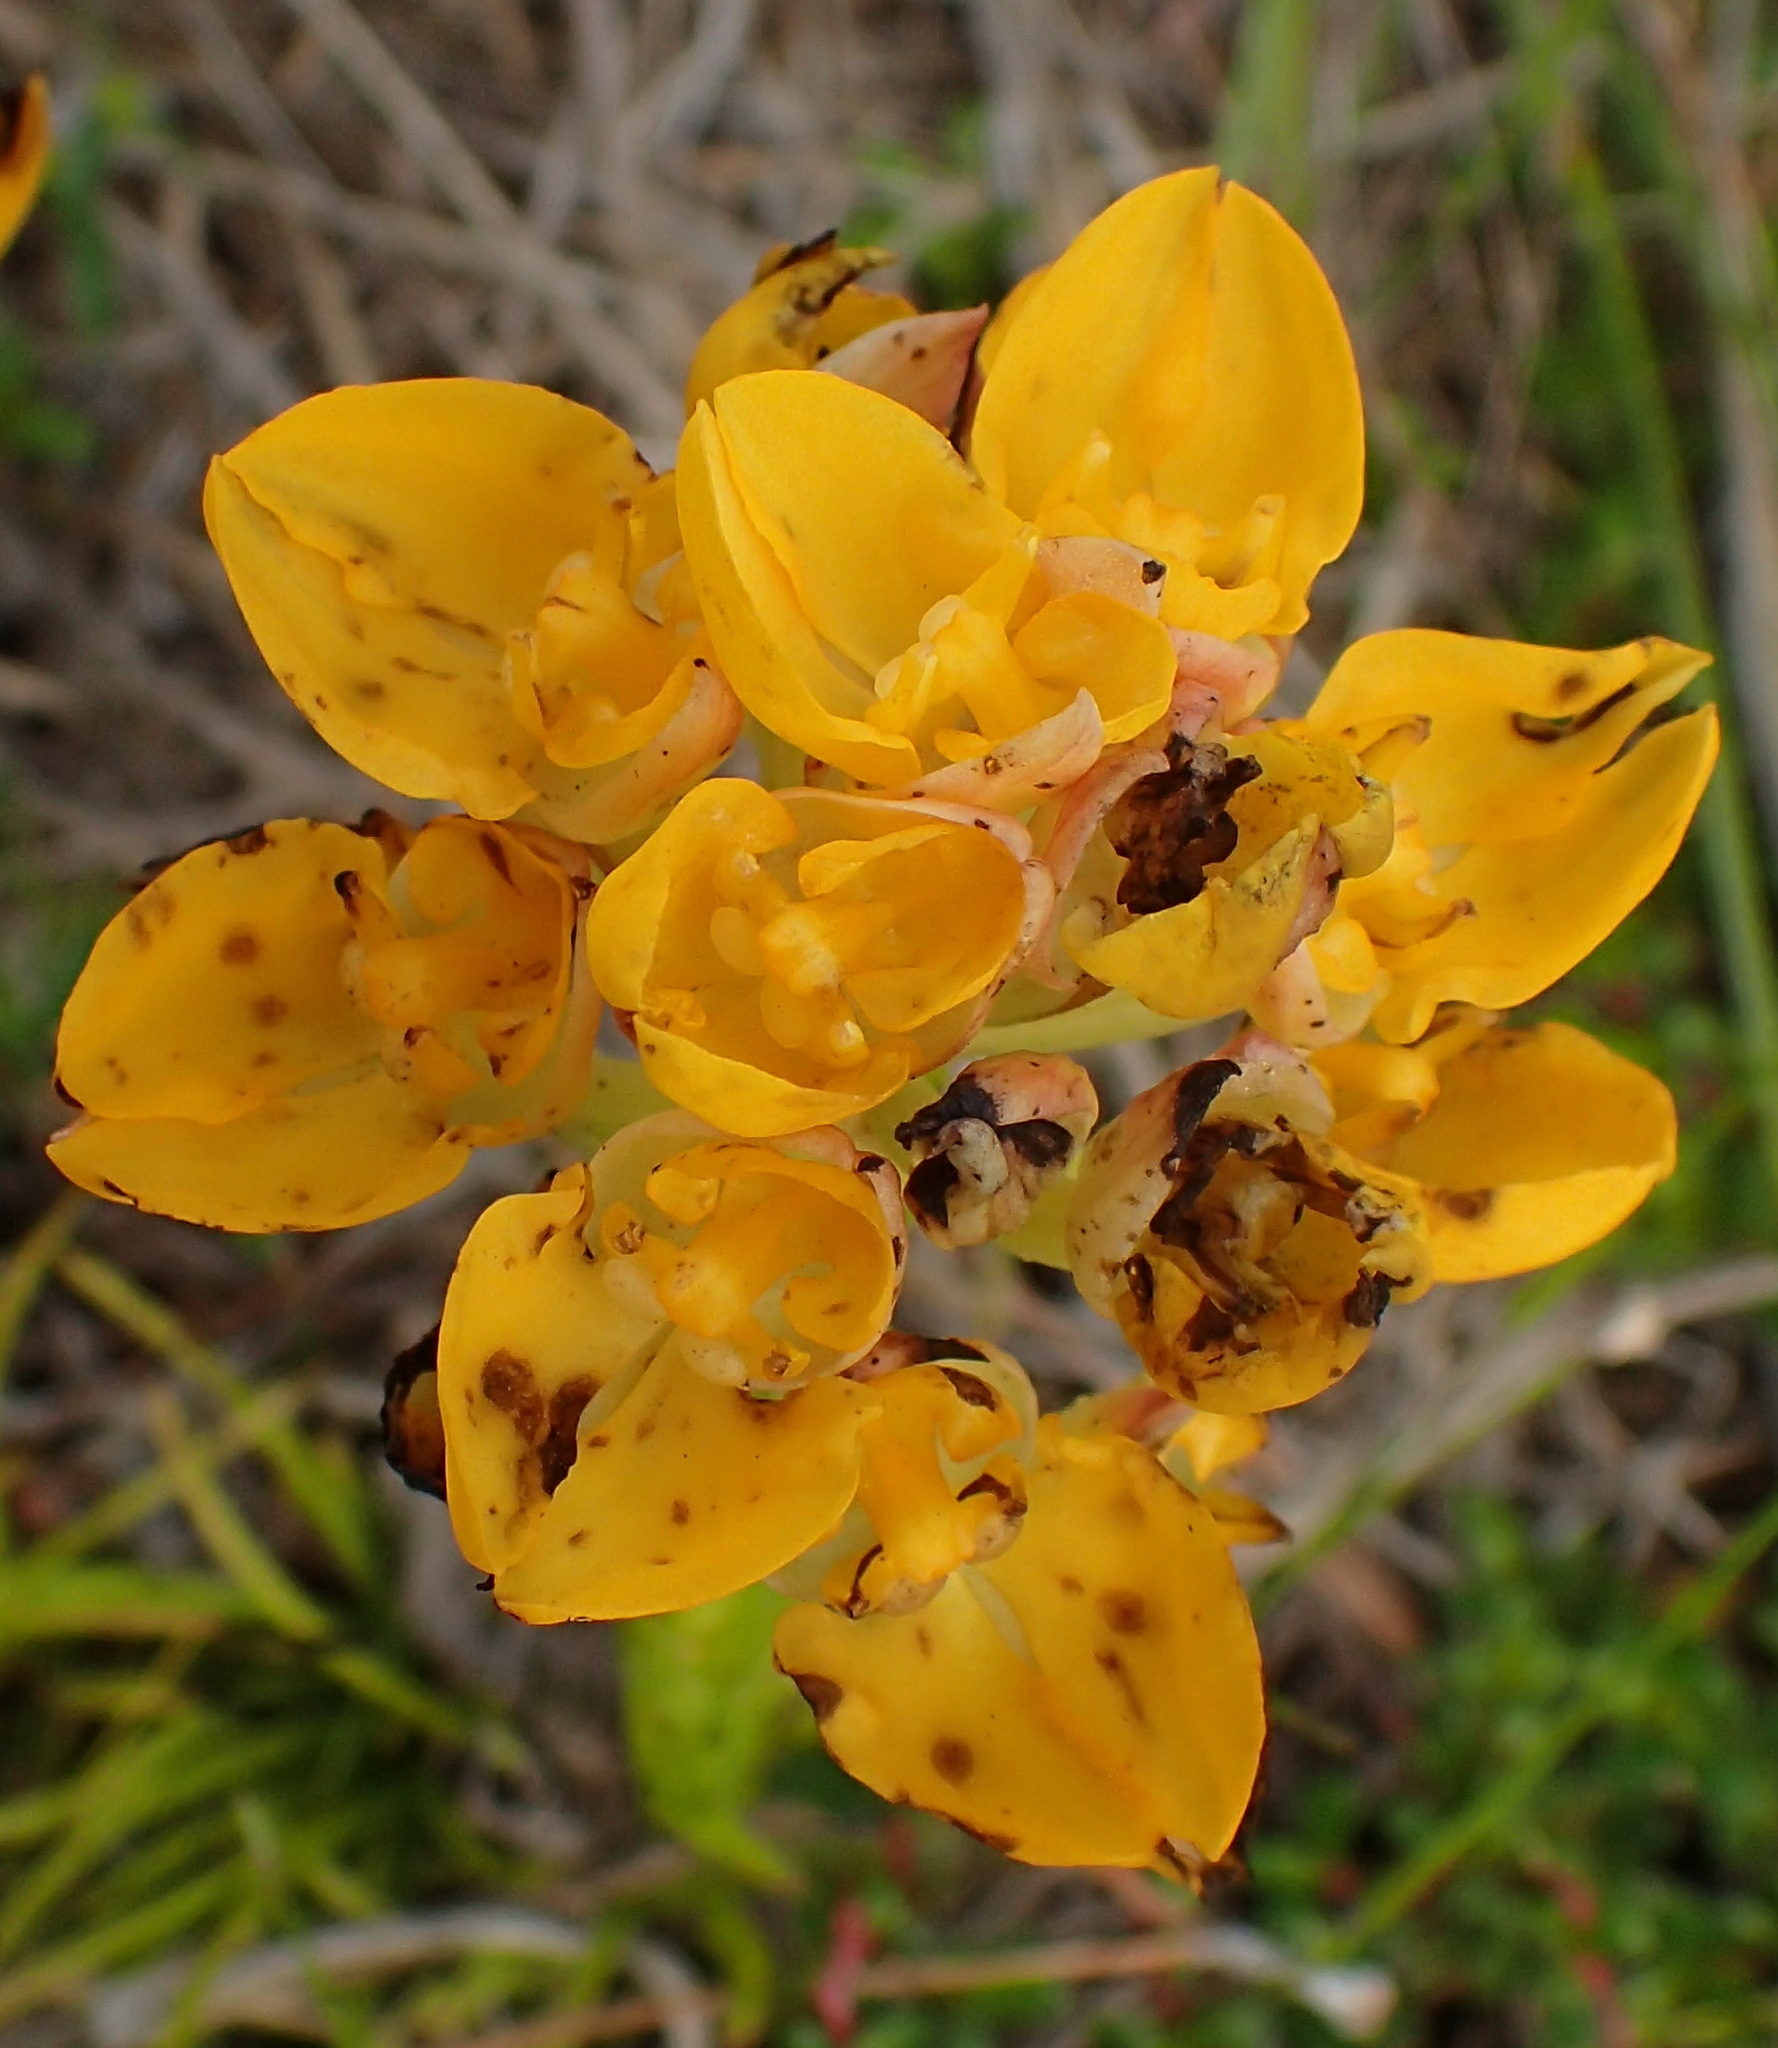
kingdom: Plantae
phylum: Tracheophyta
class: Liliopsida
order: Asparagales
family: Orchidaceae
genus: Ceratandra
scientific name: Ceratandra grandiflora
